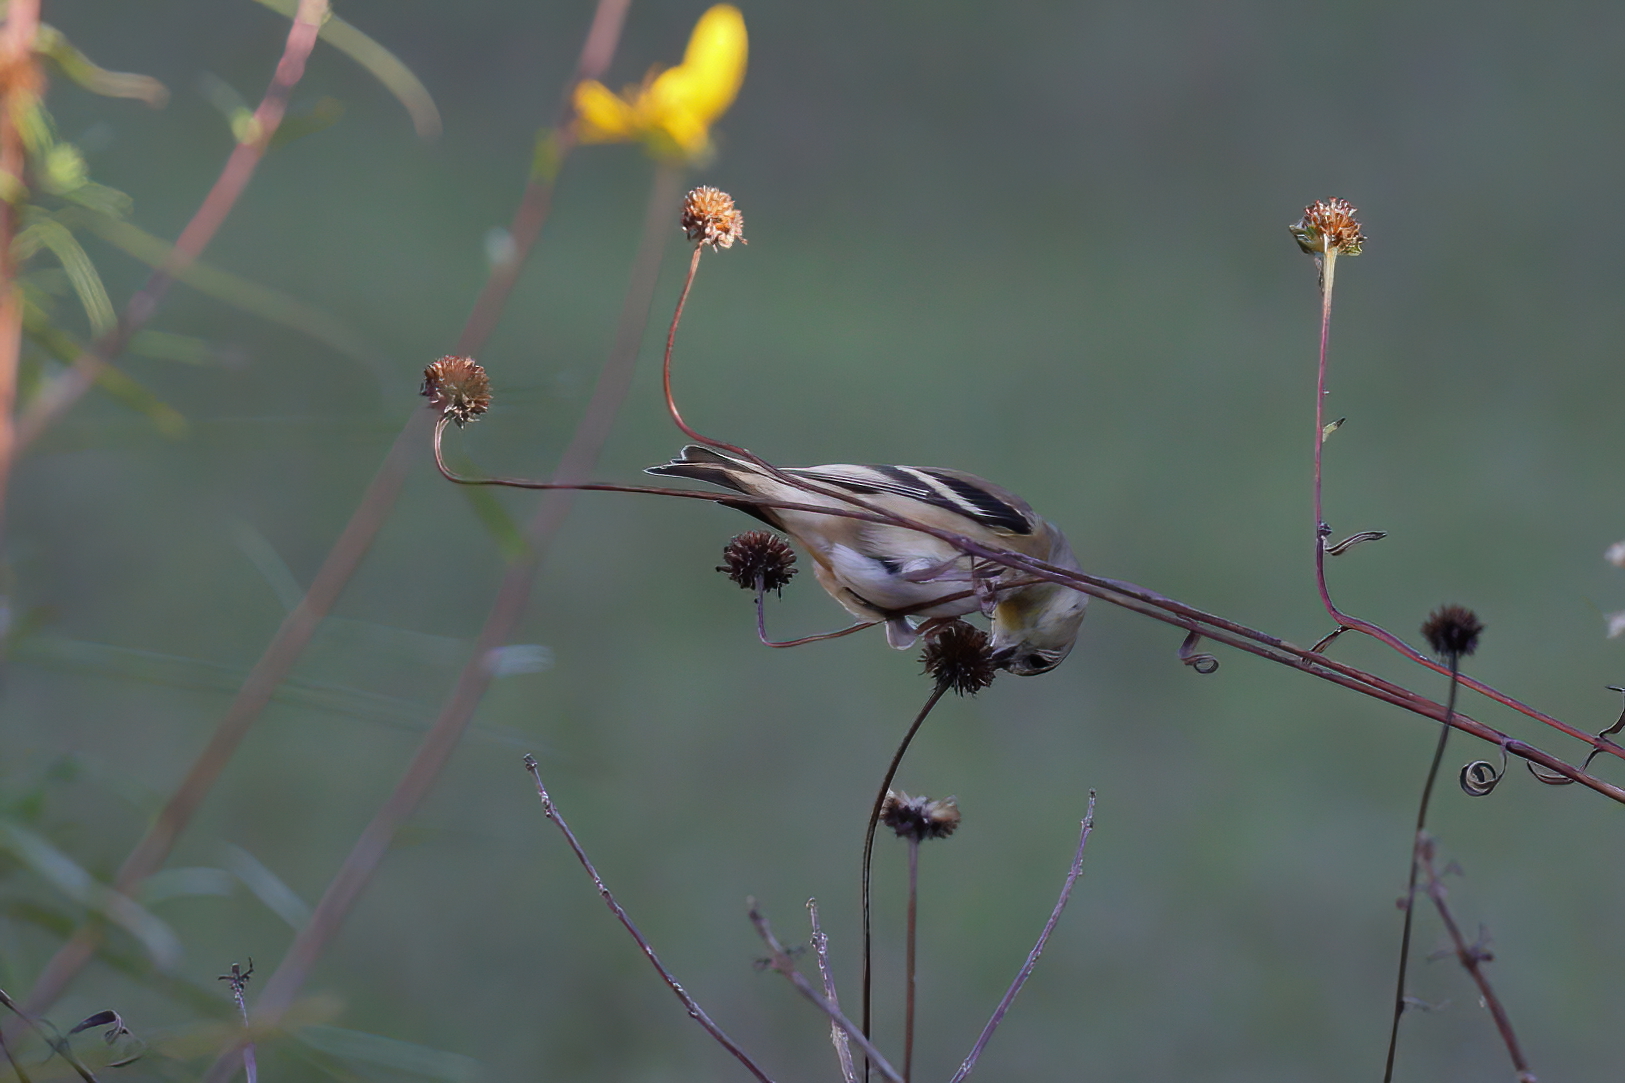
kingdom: Animalia
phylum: Chordata
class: Aves
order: Passeriformes
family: Fringillidae
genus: Spinus
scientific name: Spinus tristis
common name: American goldfinch
